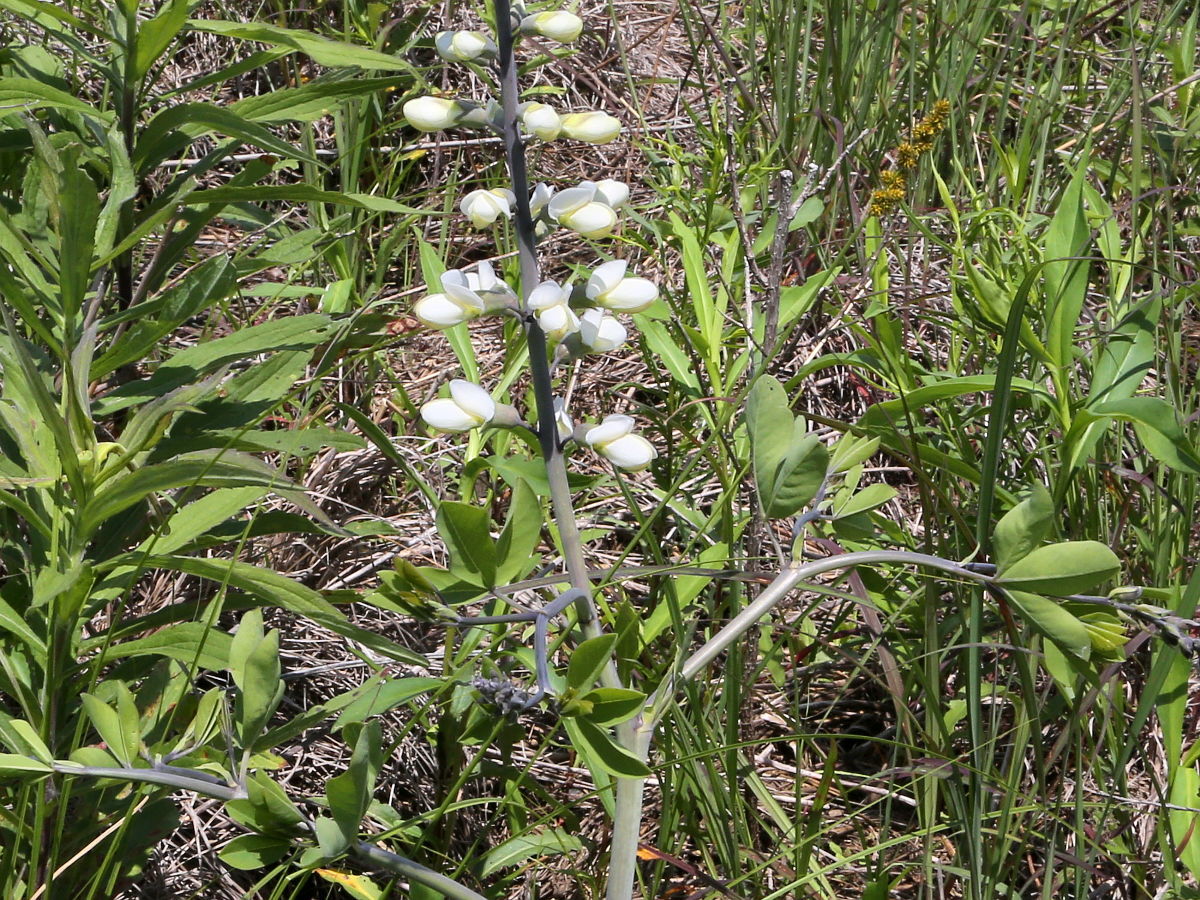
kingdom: Plantae
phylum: Tracheophyta
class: Magnoliopsida
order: Fabales
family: Fabaceae
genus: Baptisia
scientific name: Baptisia alba
